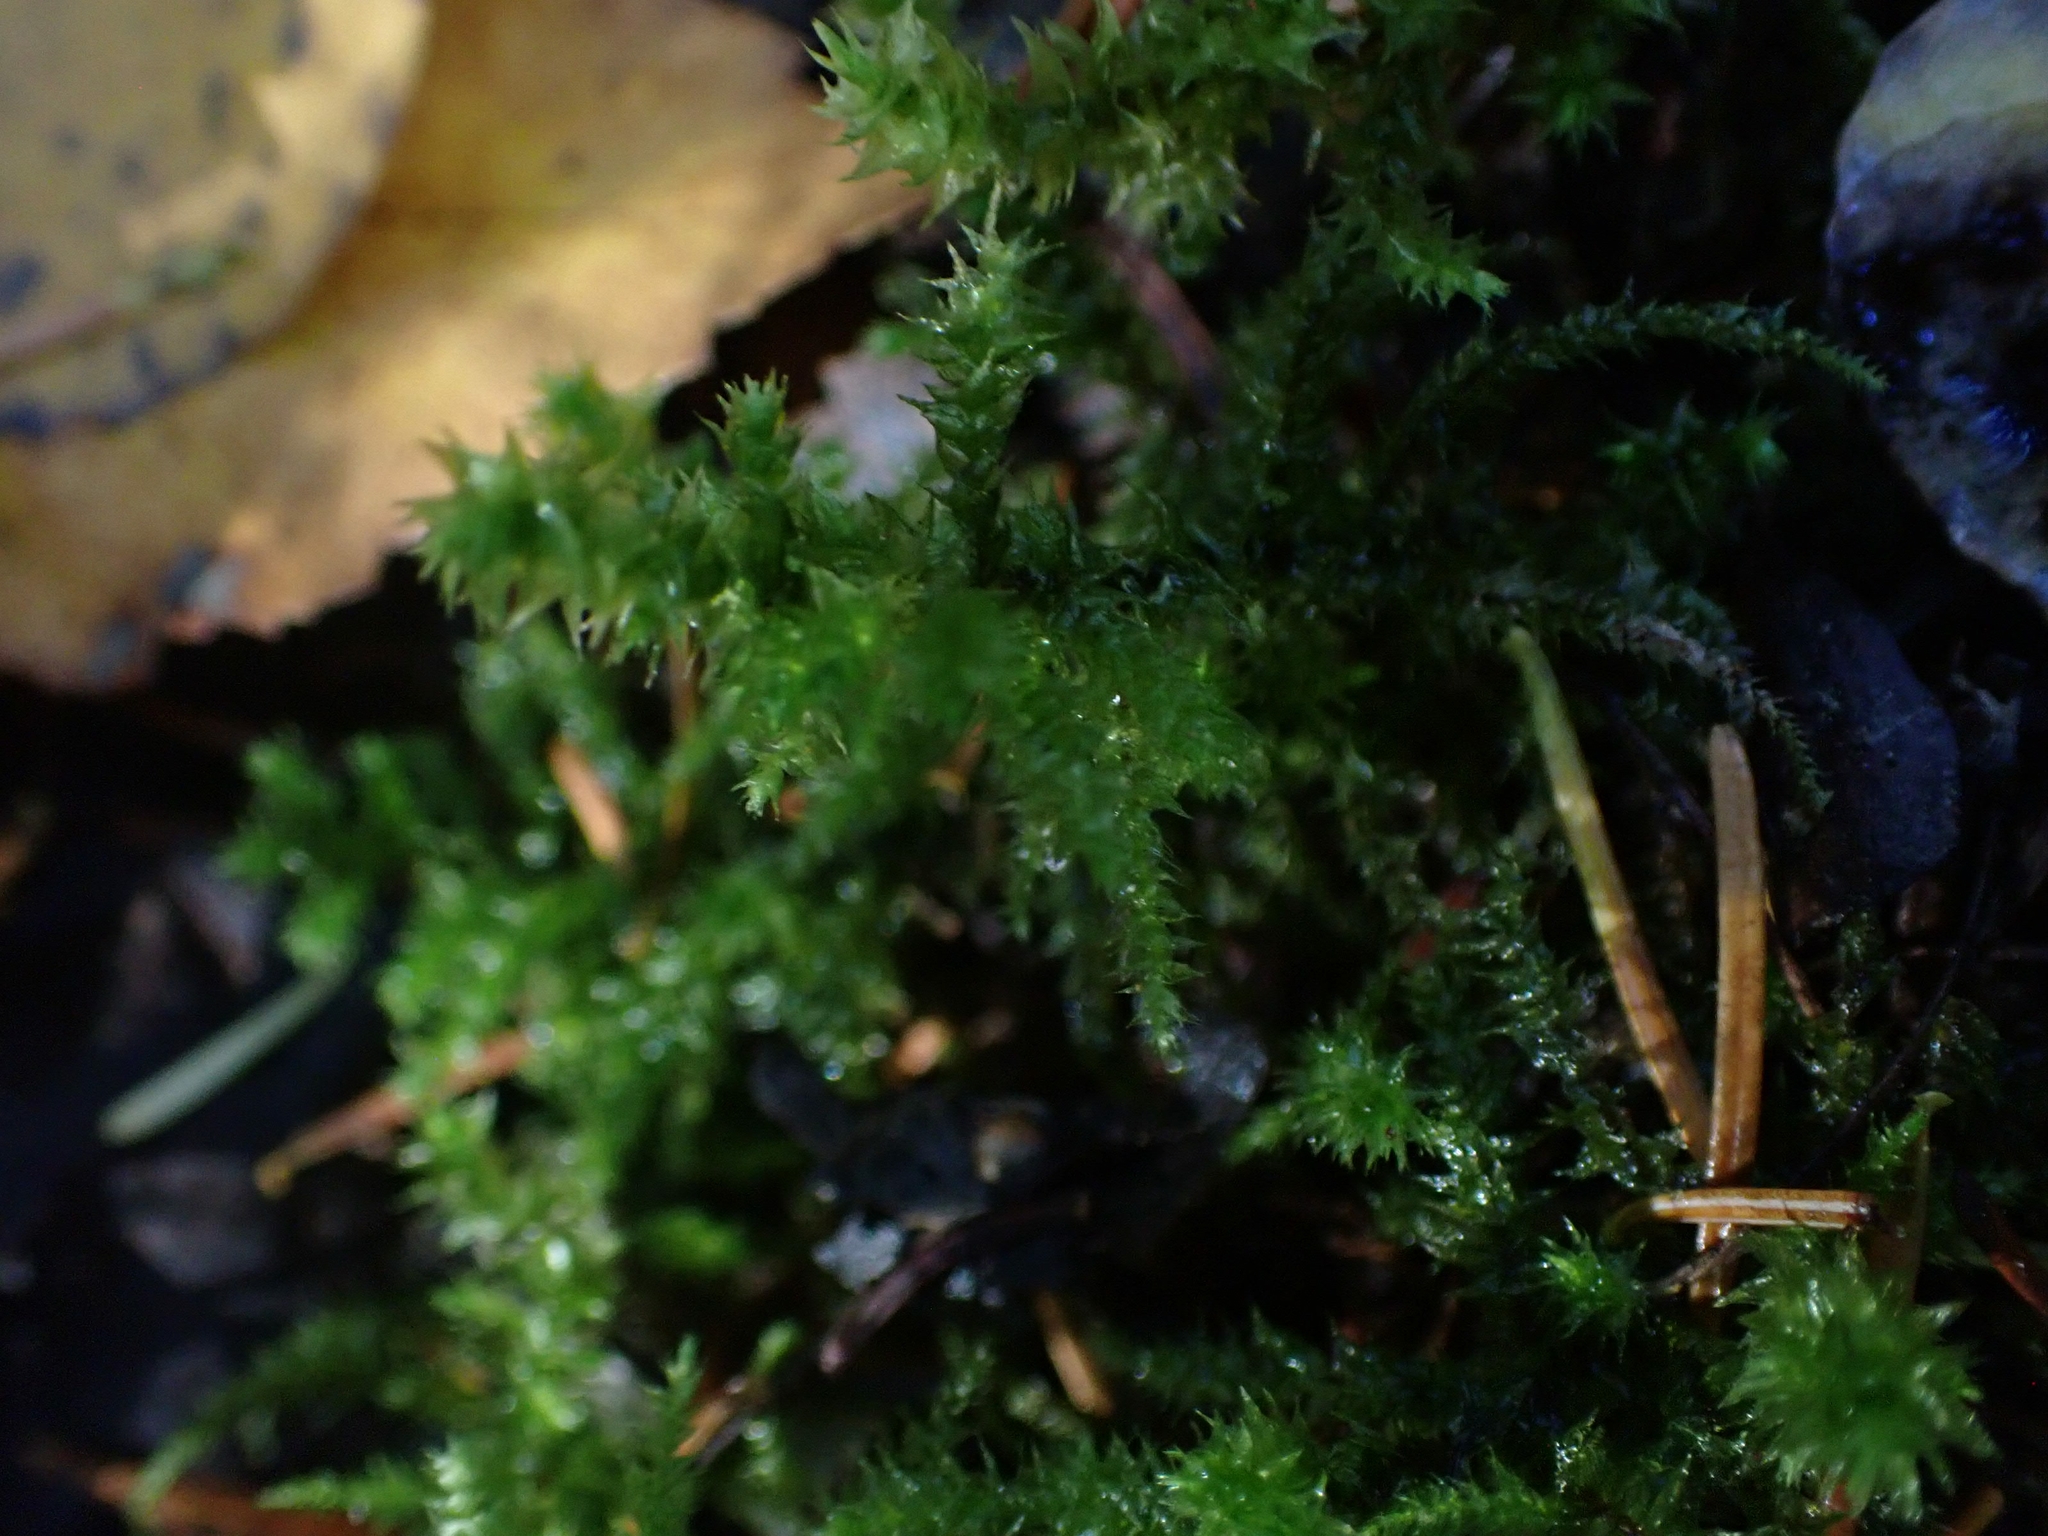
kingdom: Plantae
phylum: Bryophyta
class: Bryopsida
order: Hypnales
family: Hylocomiaceae
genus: Hylocomiadelphus
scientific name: Hylocomiadelphus triquetrus
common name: Rough goose neck moss
